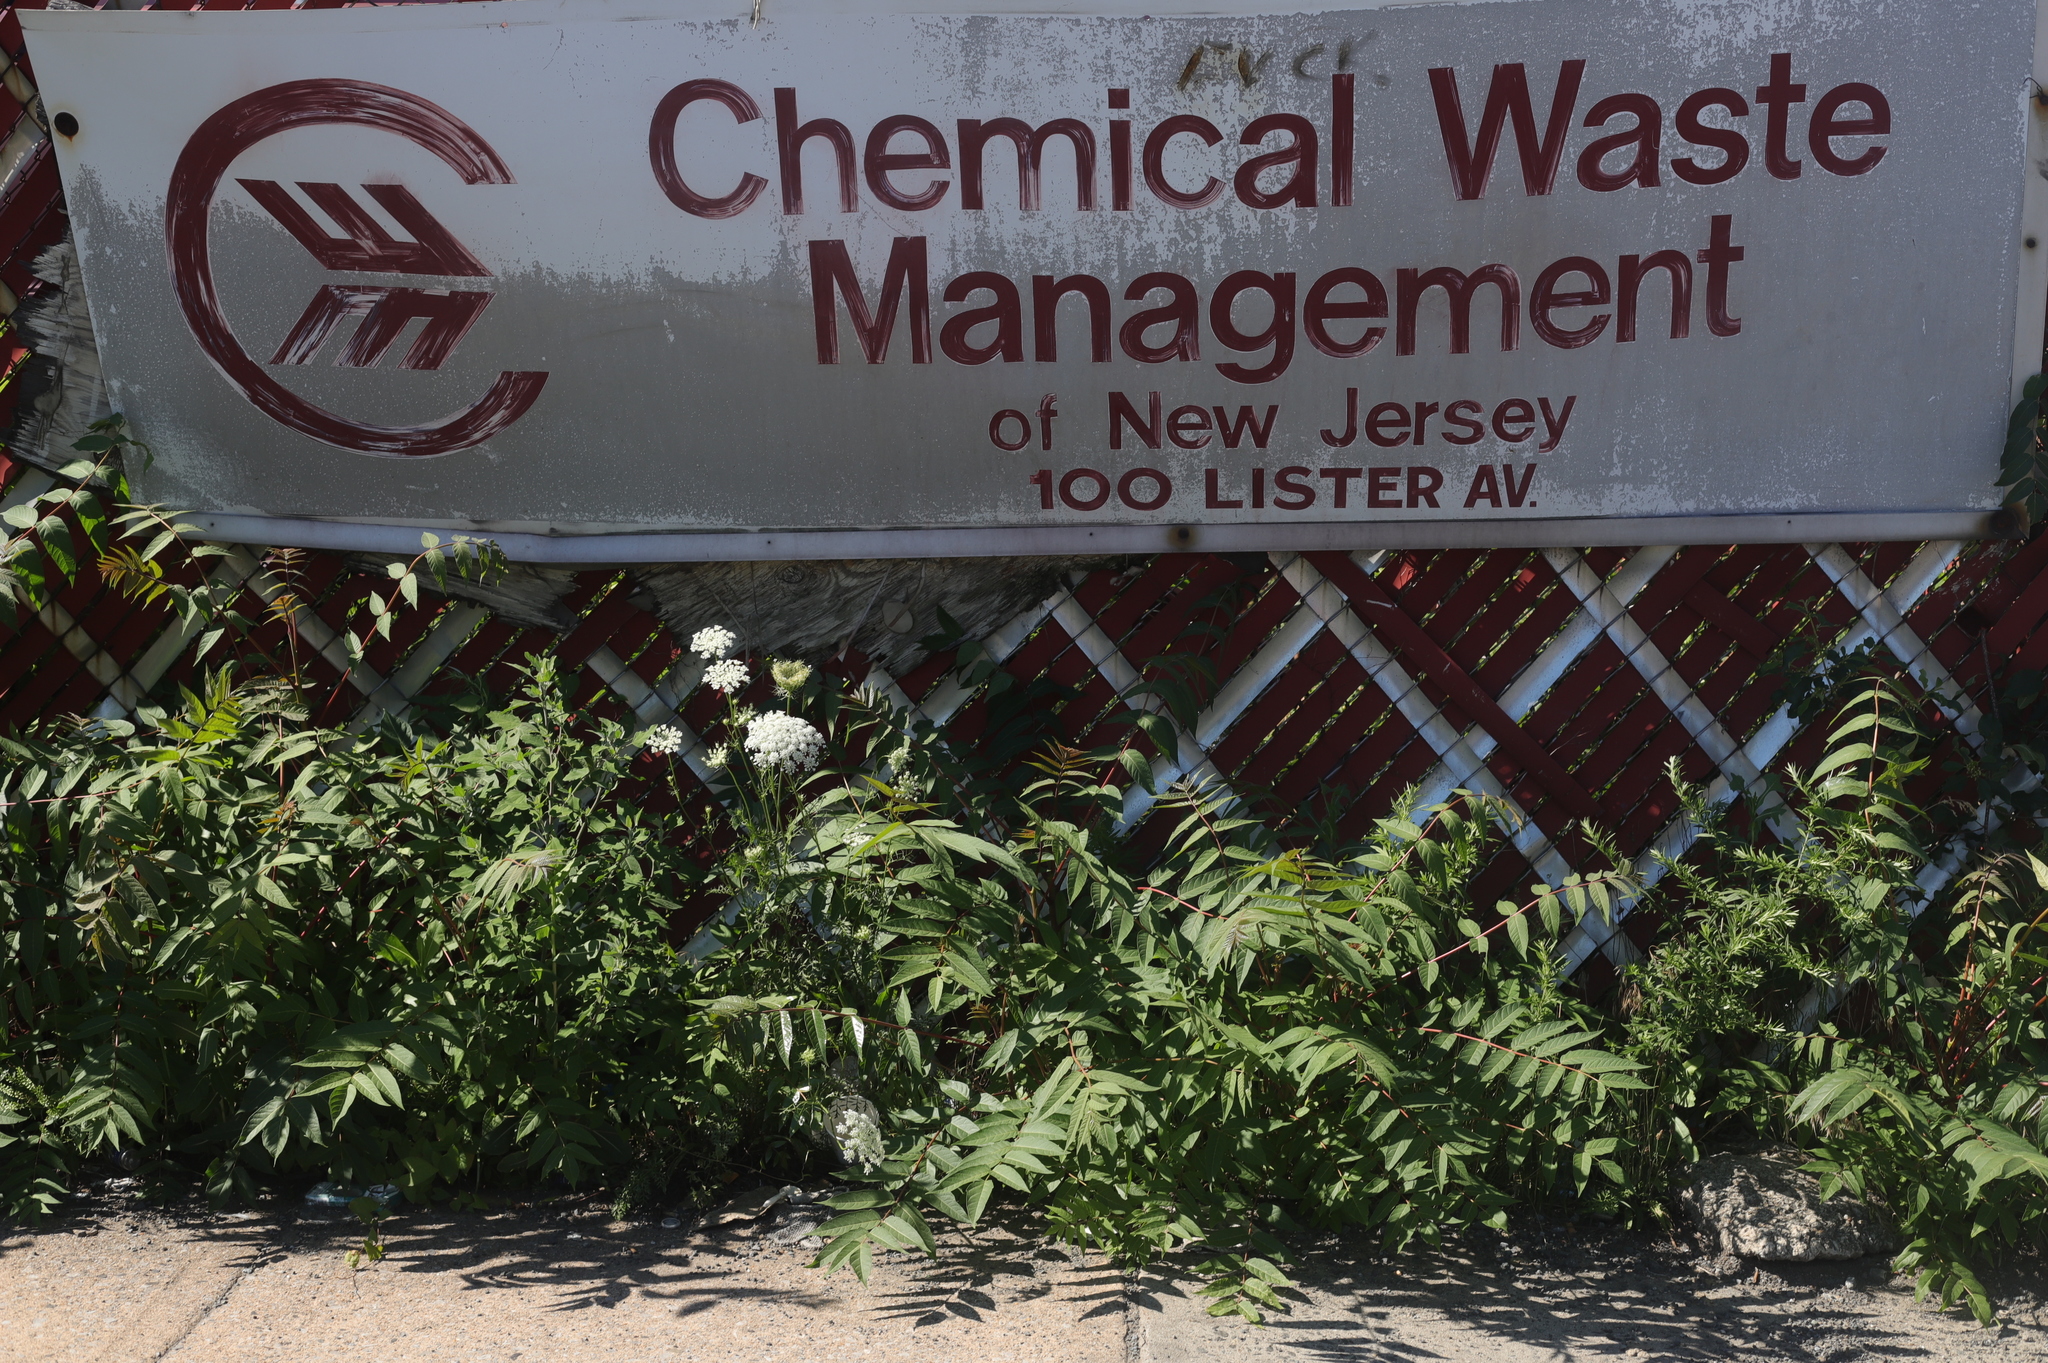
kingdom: Plantae
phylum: Tracheophyta
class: Magnoliopsida
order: Sapindales
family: Simaroubaceae
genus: Ailanthus
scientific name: Ailanthus altissima
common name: Tree-of-heaven
